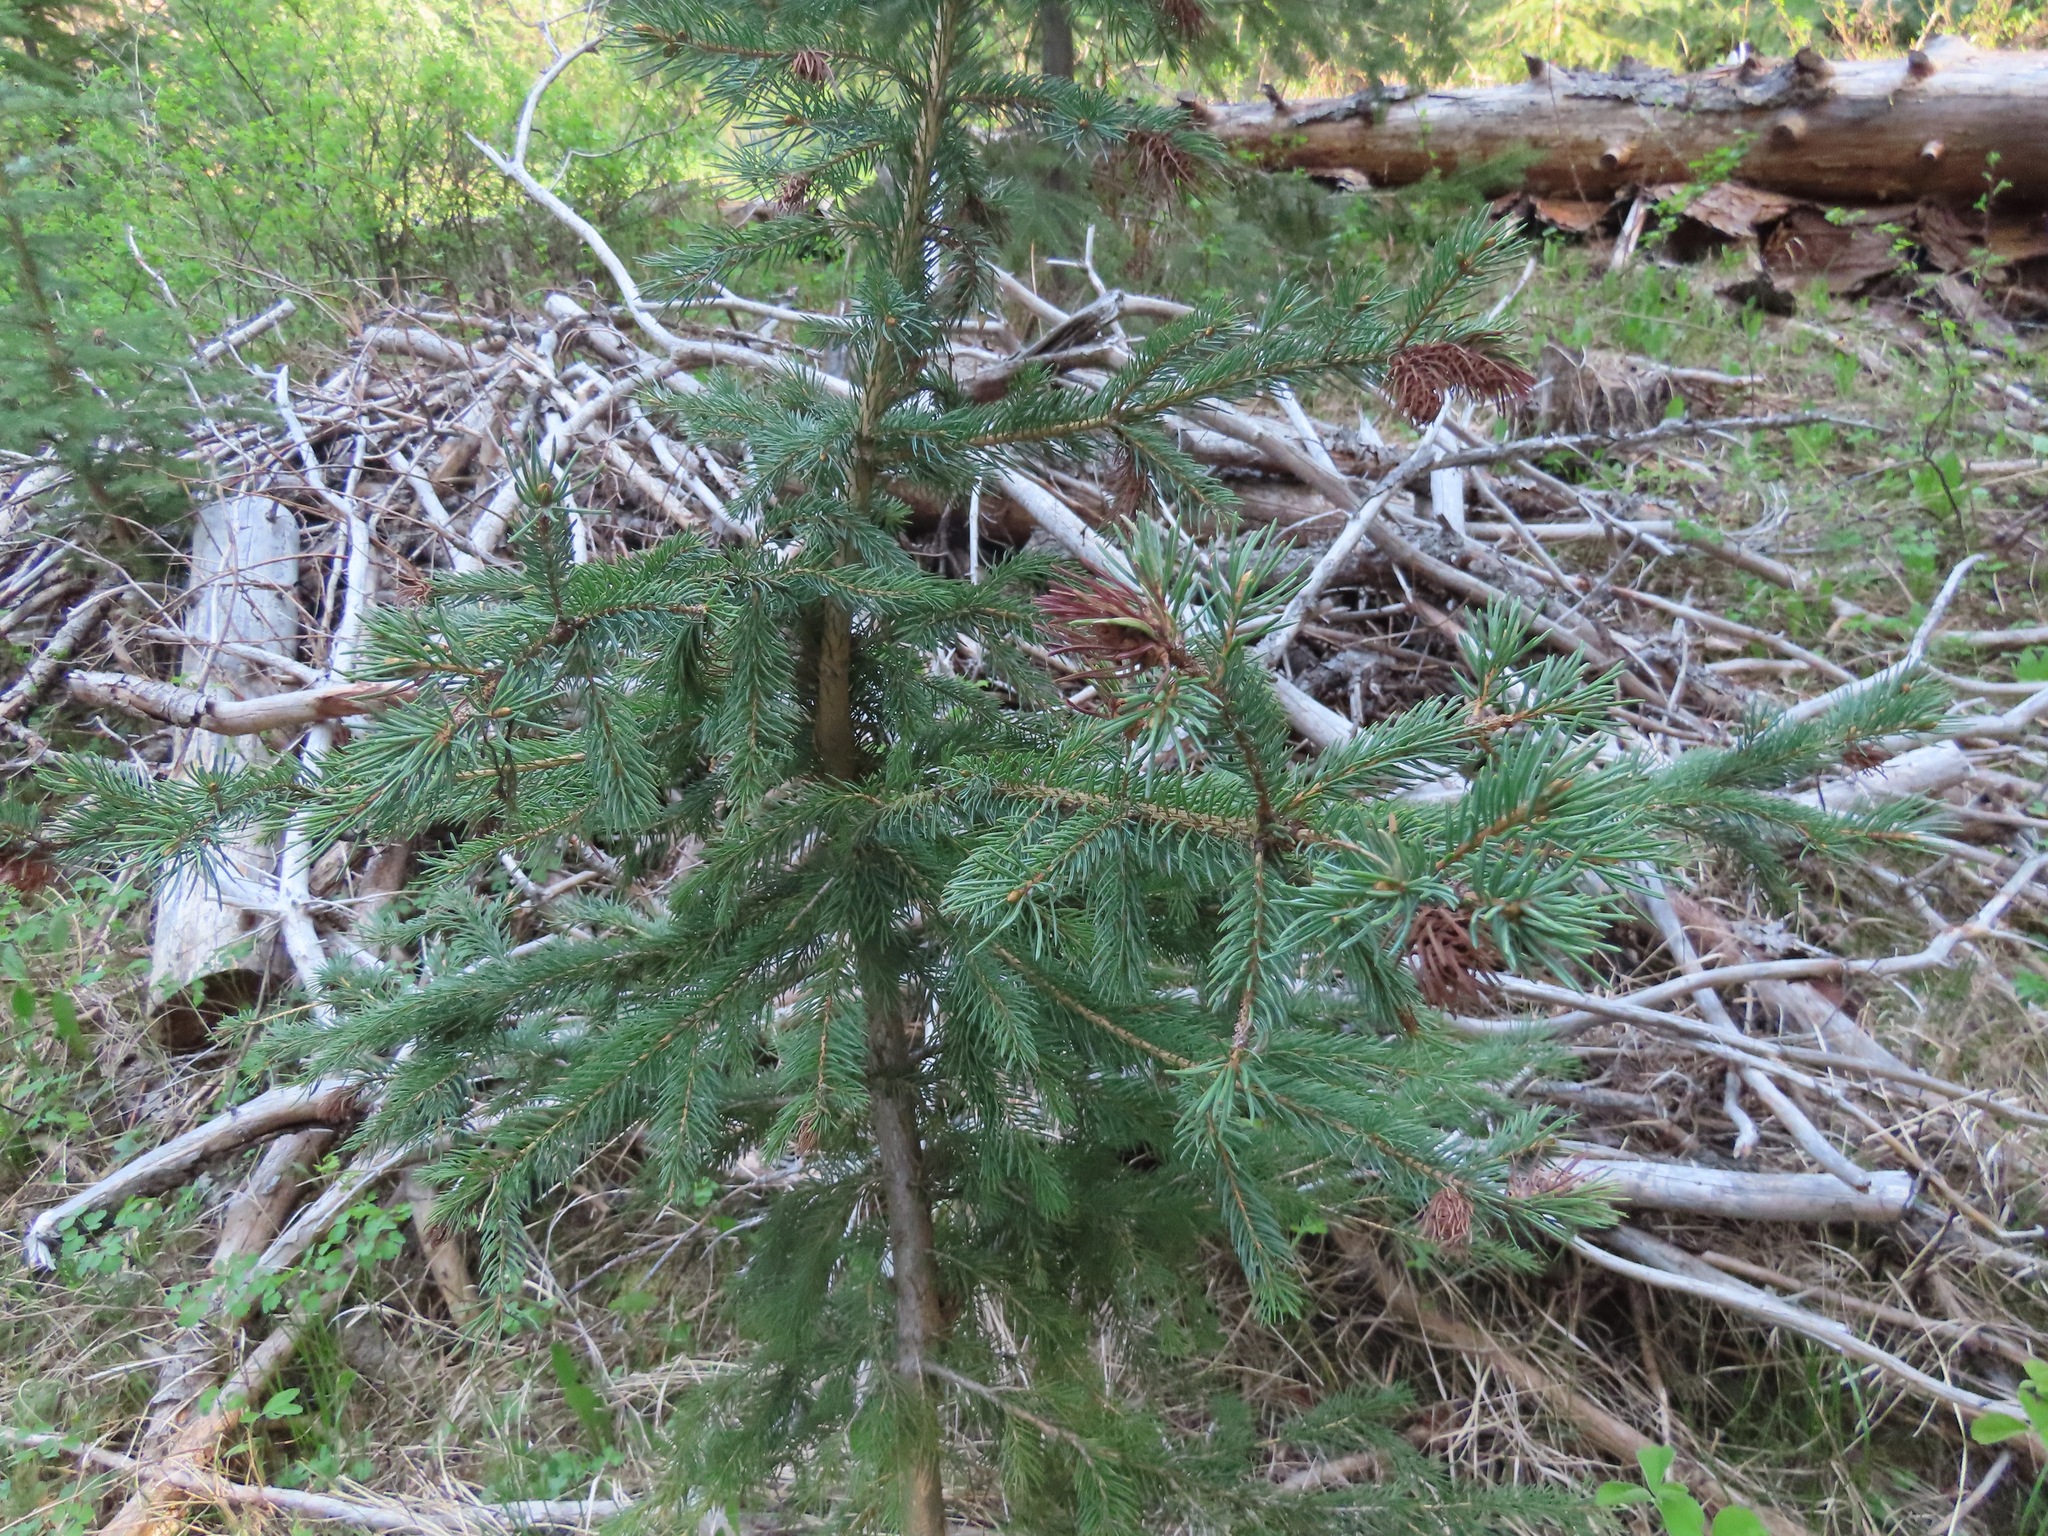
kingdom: Plantae
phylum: Tracheophyta
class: Pinopsida
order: Pinales
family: Pinaceae
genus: Picea
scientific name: Picea engelmannii
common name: Engelmann spruce
